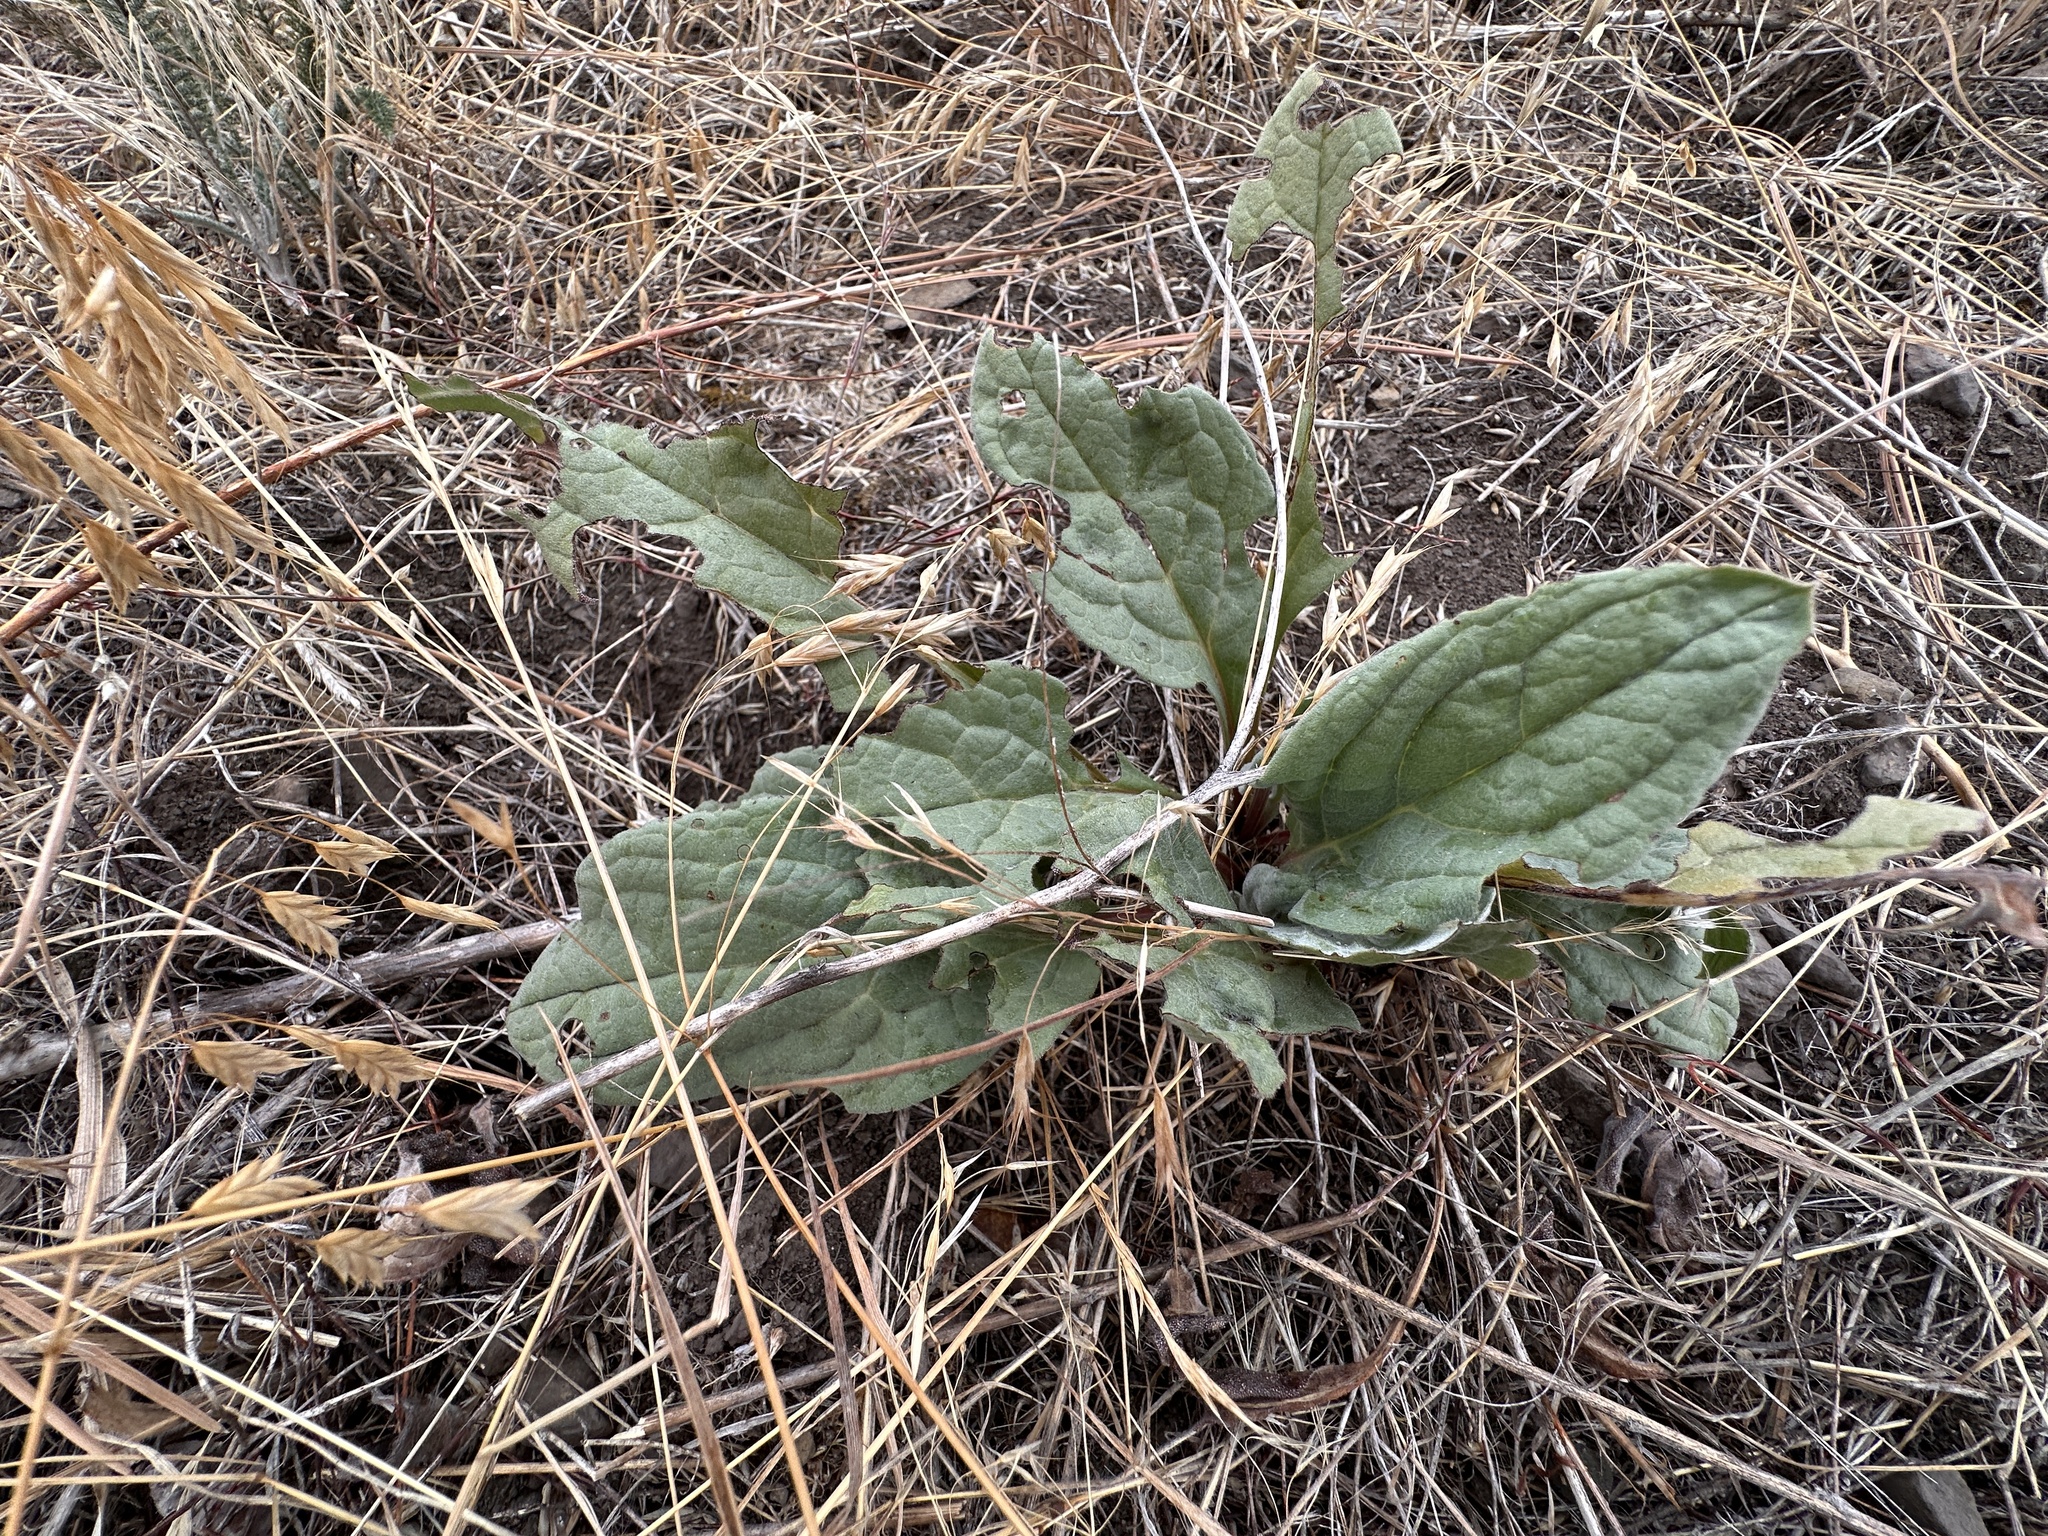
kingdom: Plantae
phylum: Tracheophyta
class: Magnoliopsida
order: Boraginales
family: Boraginaceae
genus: Cynoglossum
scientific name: Cynoglossum officinale
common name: Hound's-tongue
